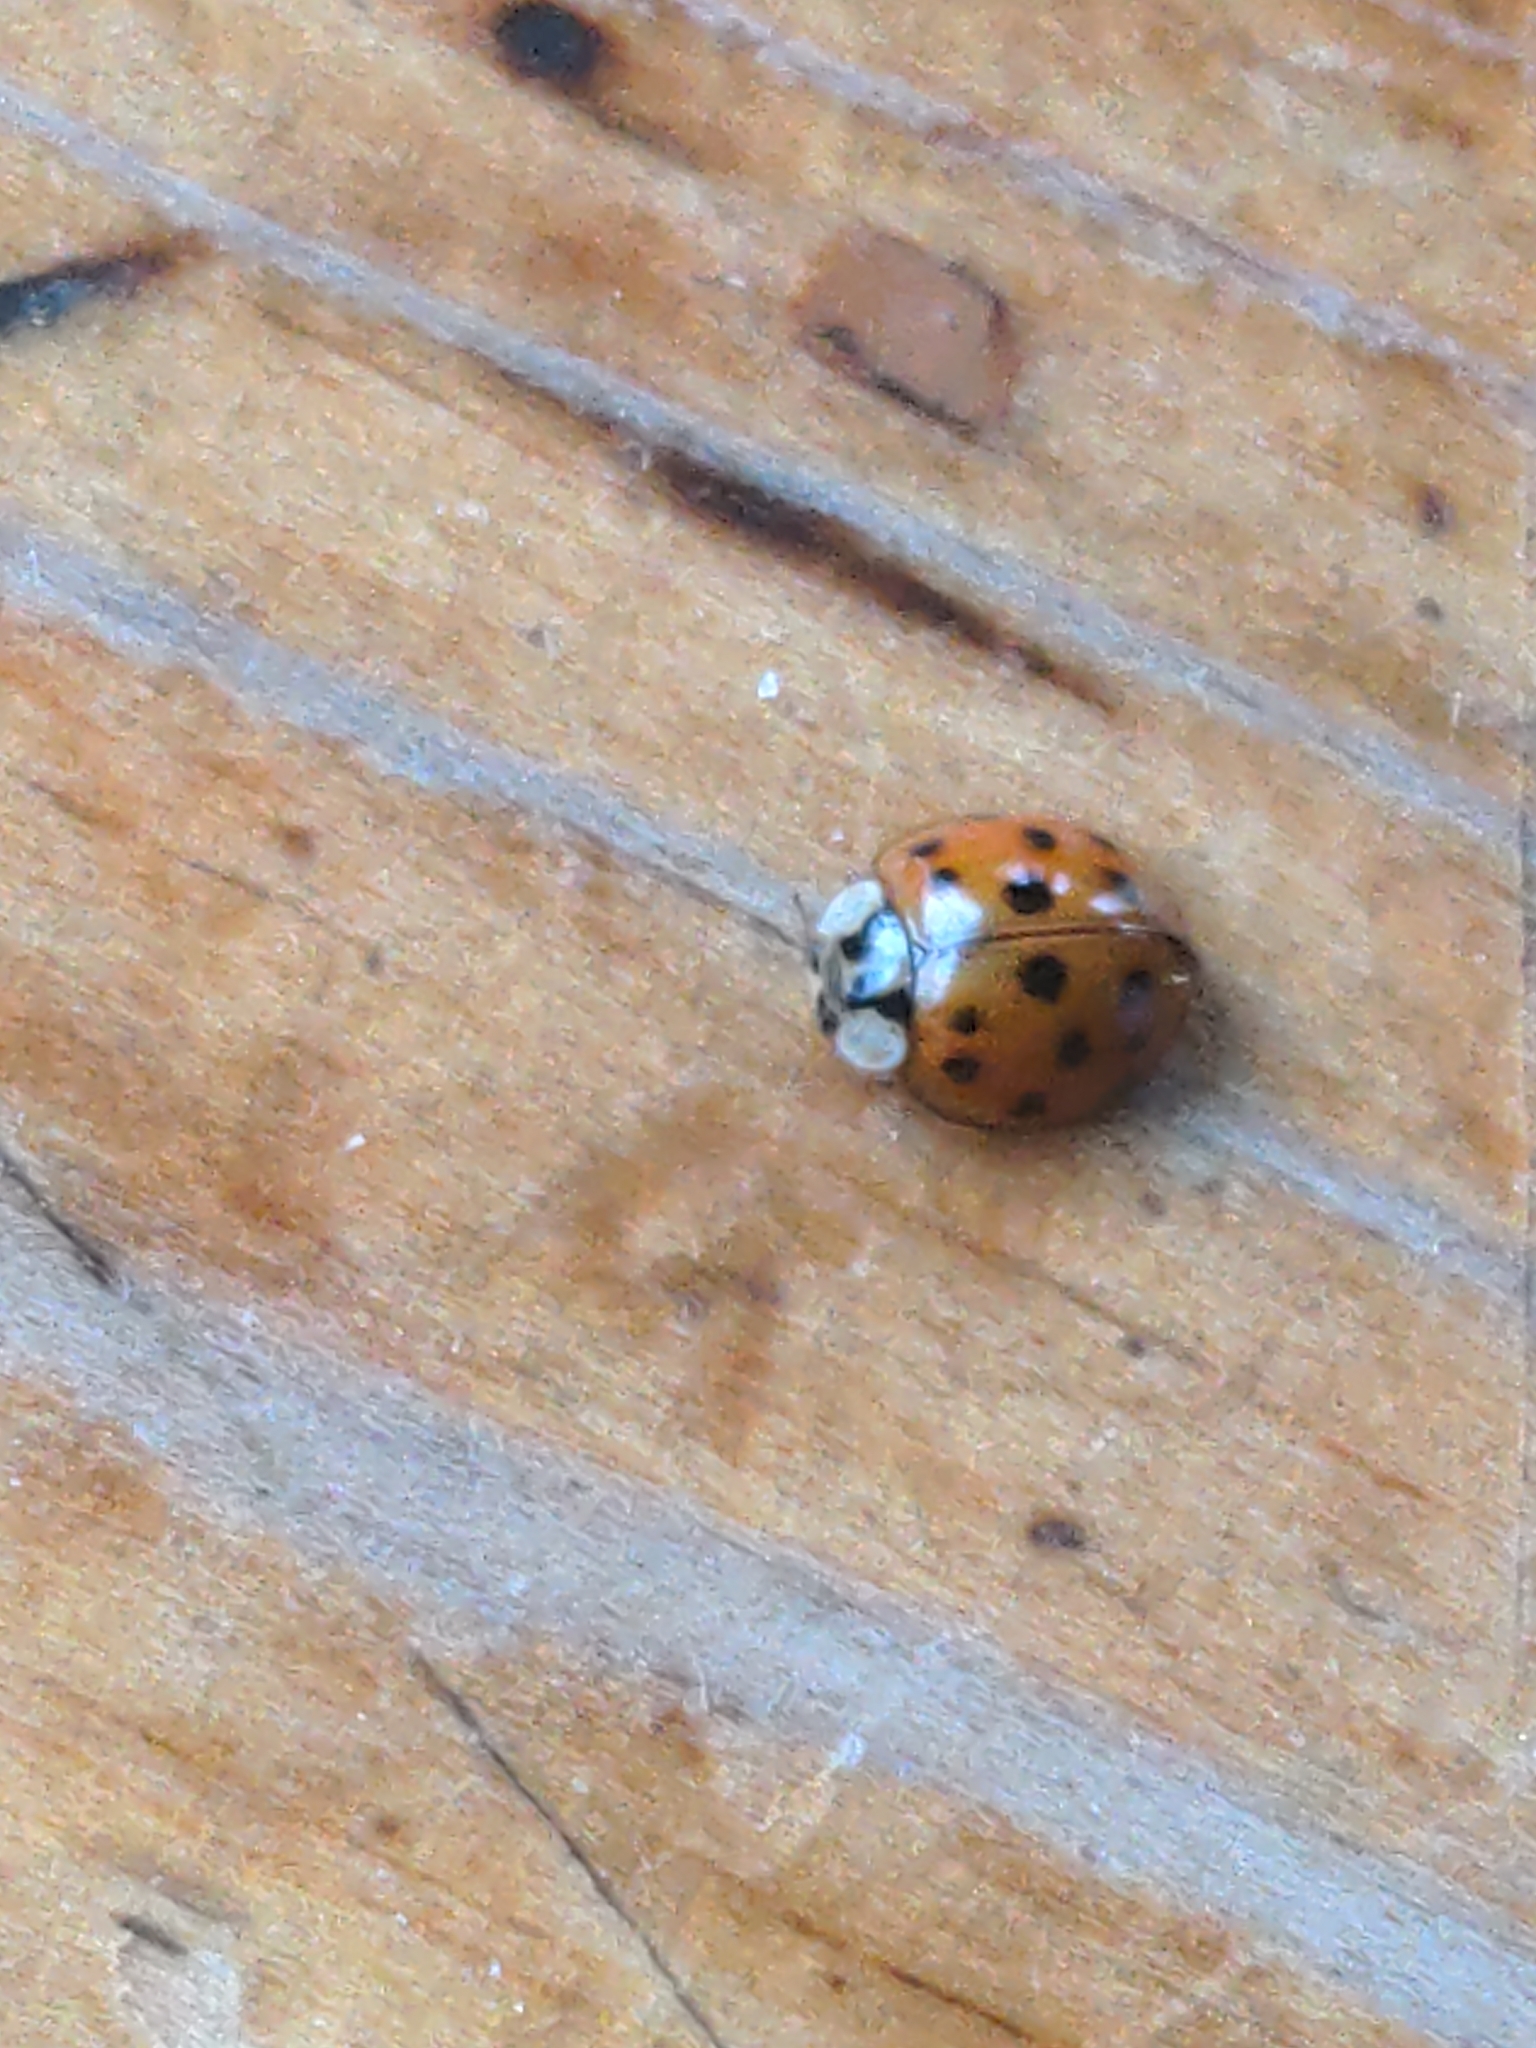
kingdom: Animalia
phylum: Arthropoda
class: Insecta
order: Coleoptera
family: Coccinellidae
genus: Harmonia
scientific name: Harmonia axyridis
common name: Harlequin ladybird
